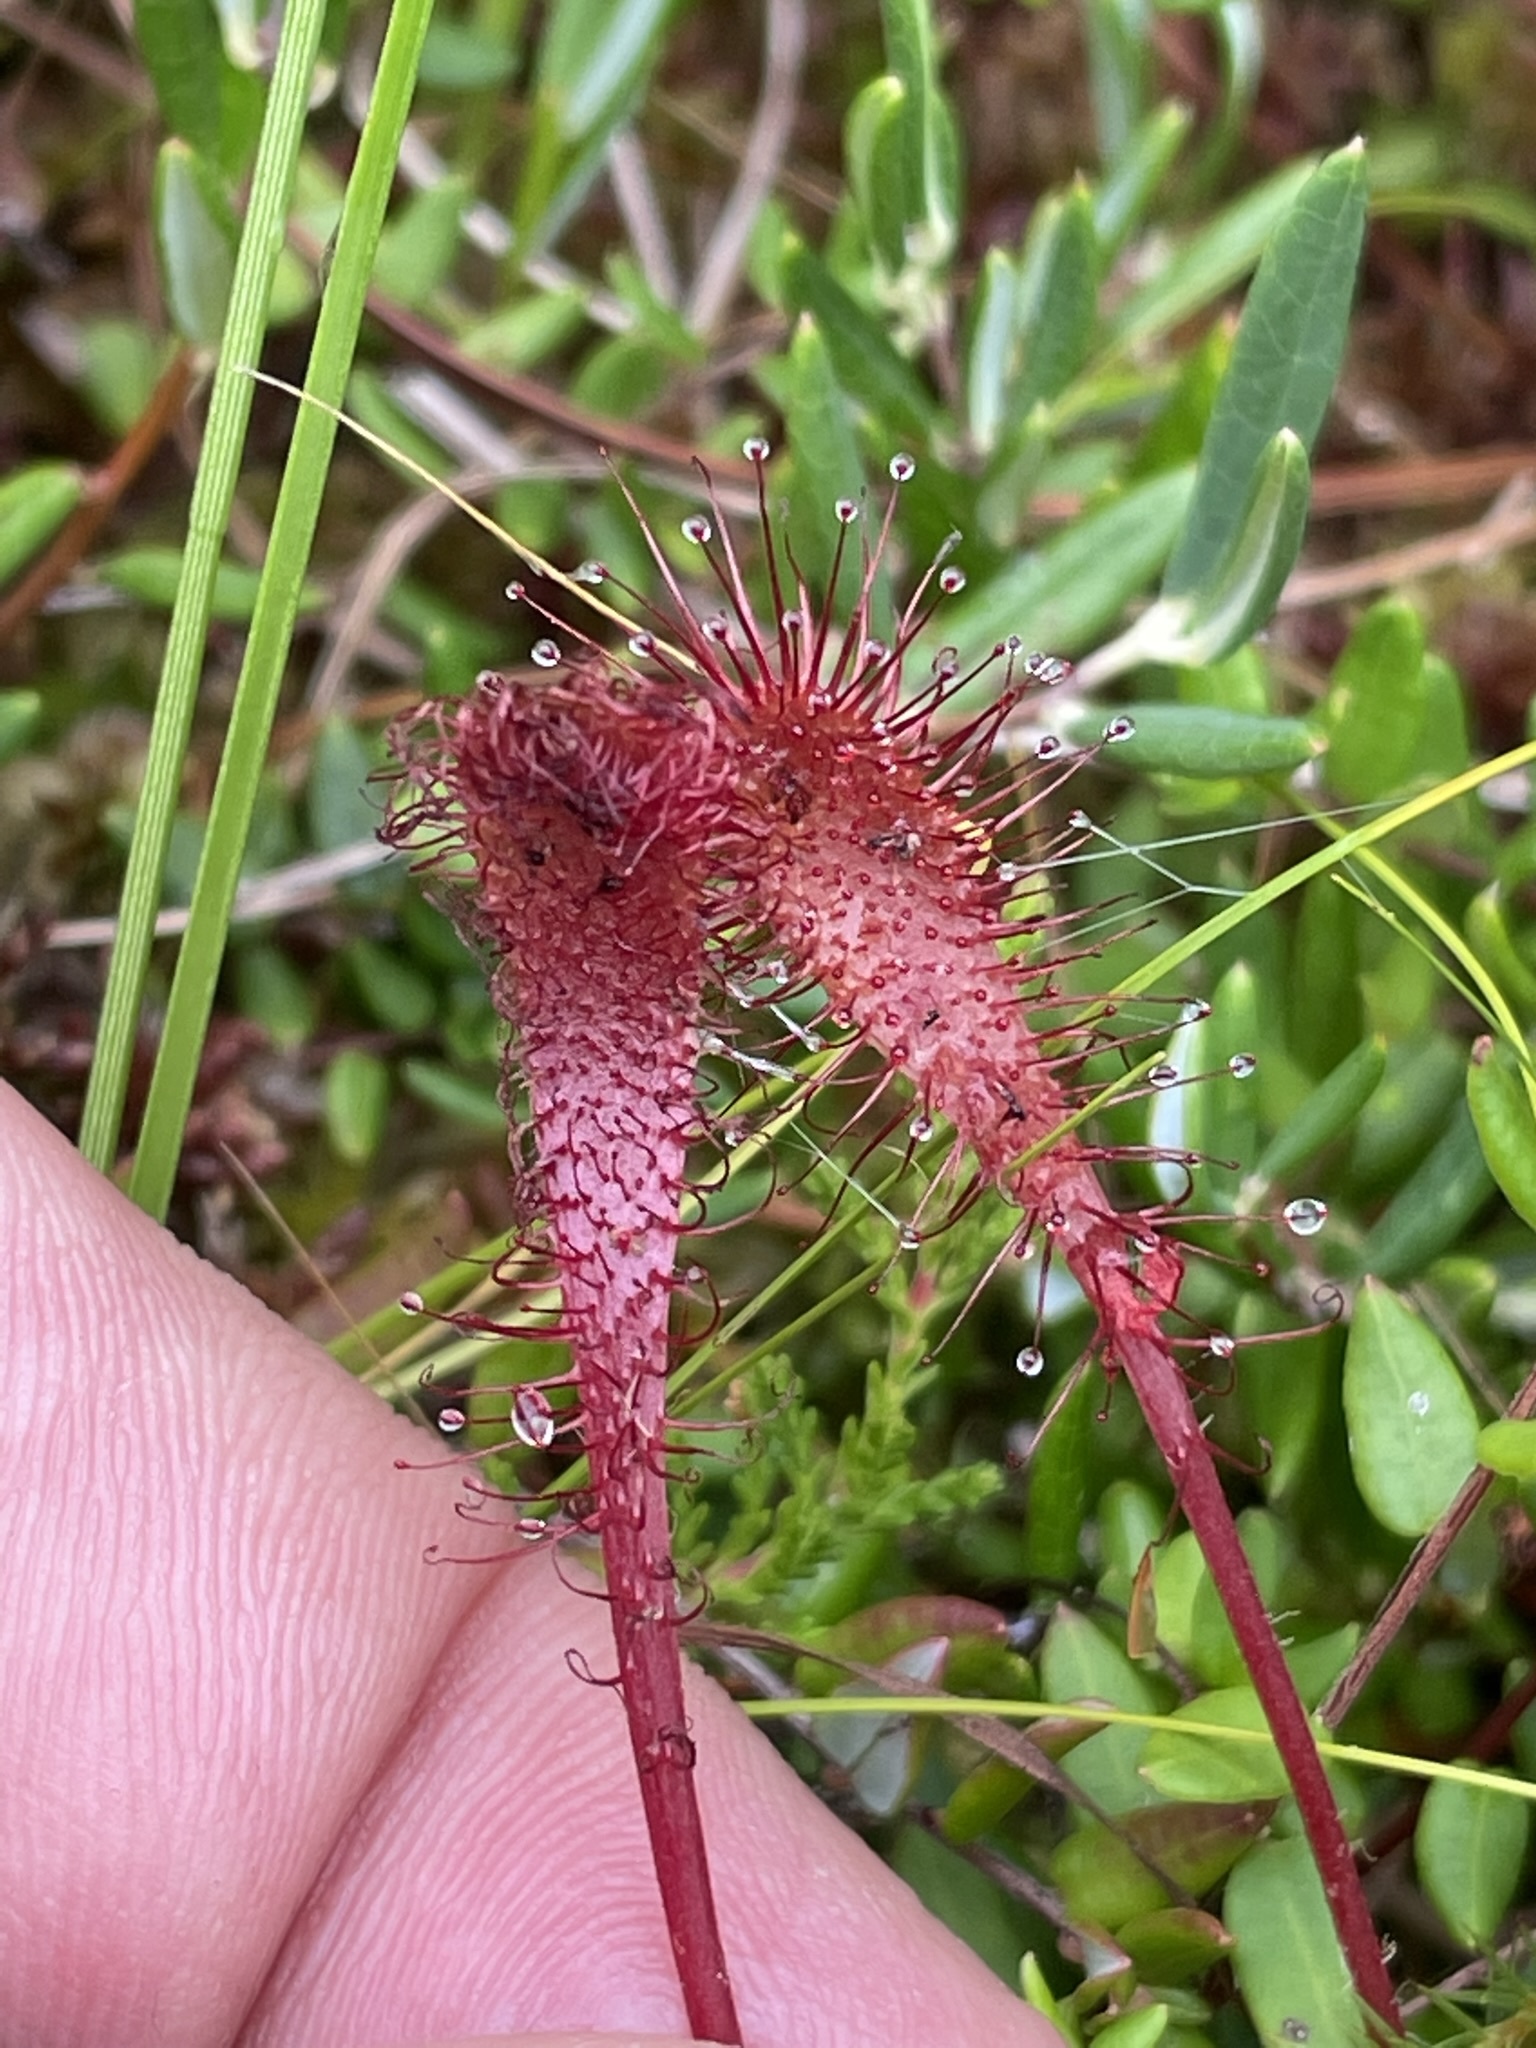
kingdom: Plantae
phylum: Tracheophyta
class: Magnoliopsida
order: Caryophyllales
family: Droseraceae
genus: Drosera
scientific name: Drosera anglica
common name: Great sundew
